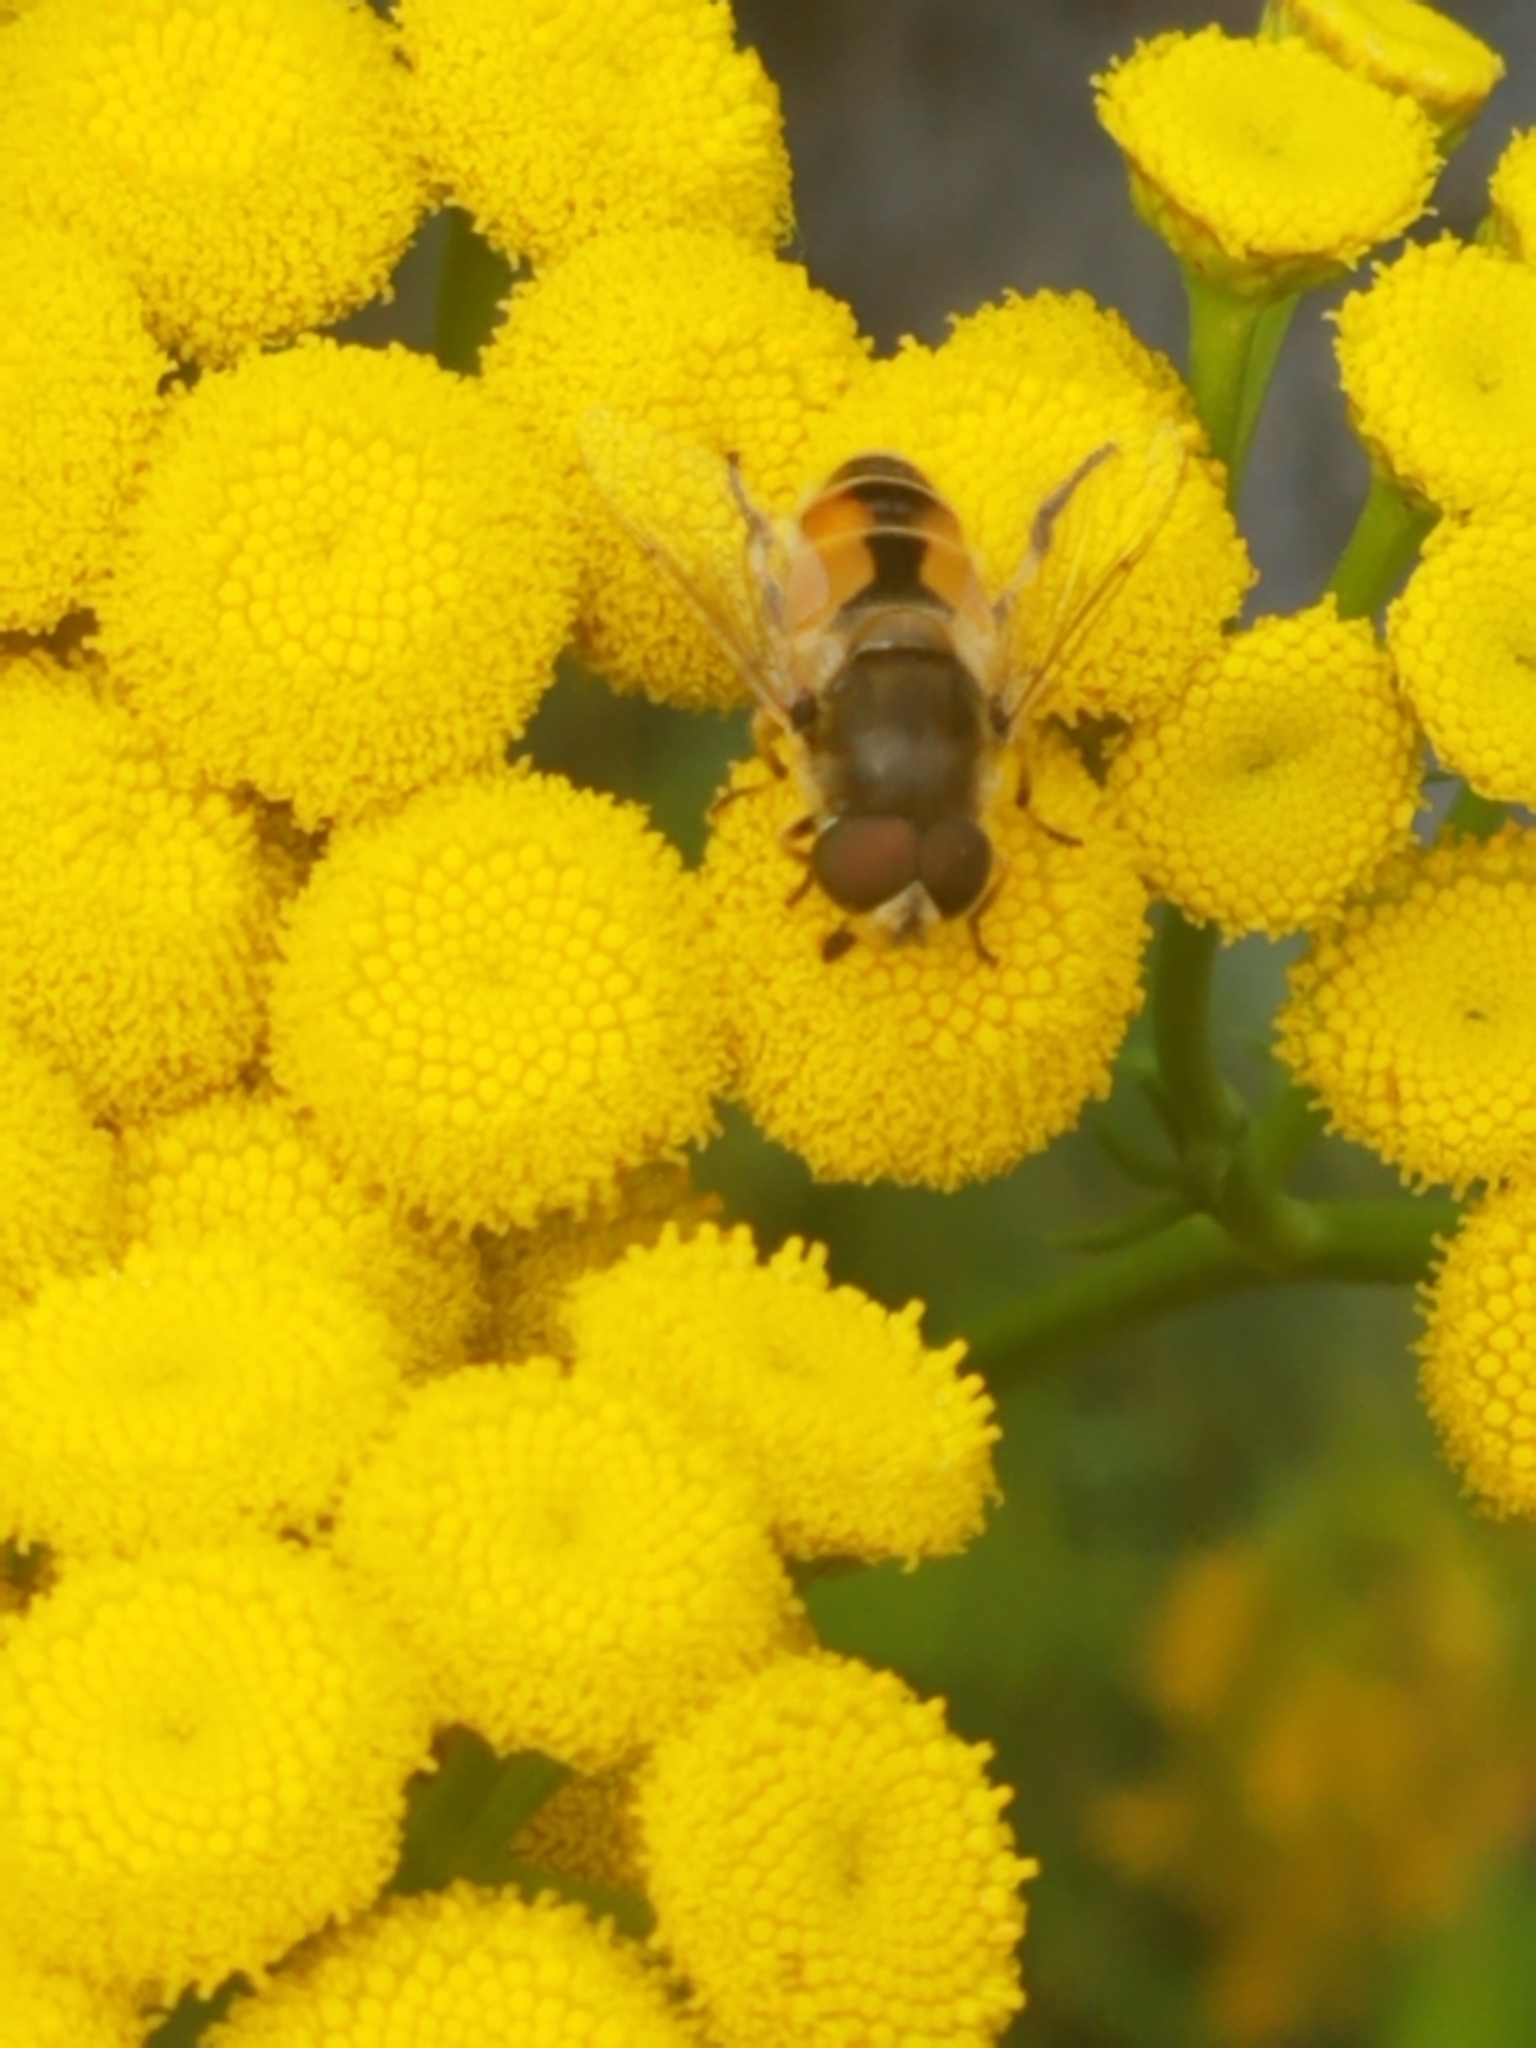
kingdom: Animalia
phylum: Arthropoda
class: Insecta
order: Diptera
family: Syrphidae
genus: Eristalis
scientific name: Eristalis arbustorum
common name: Hover fly
